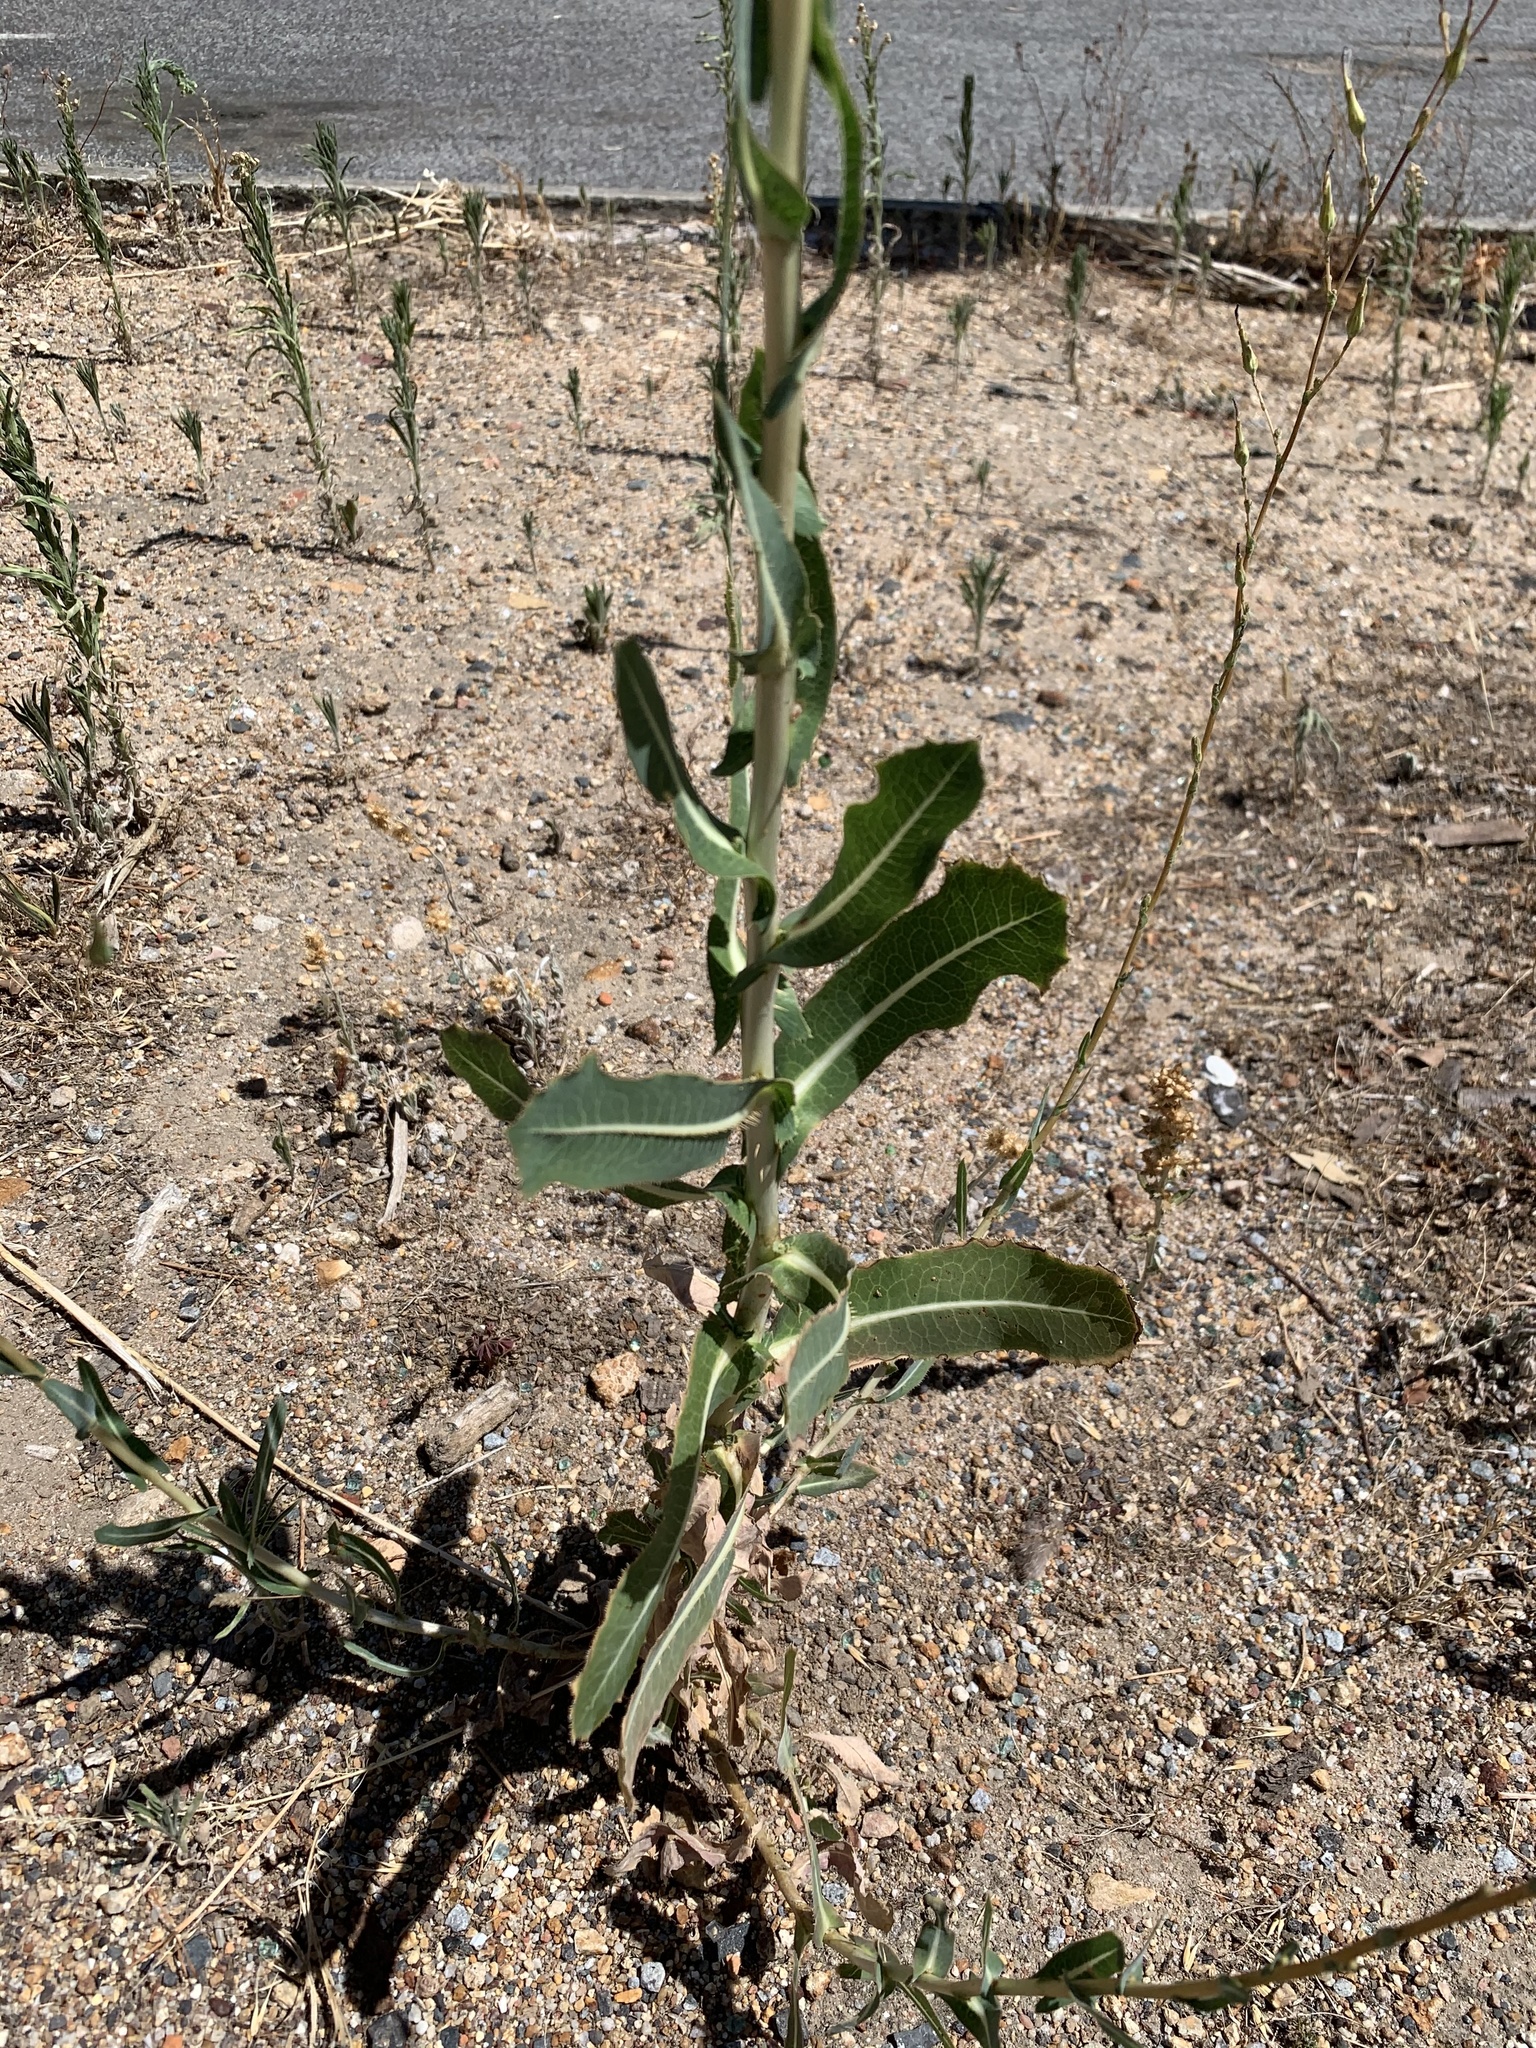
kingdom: Plantae
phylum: Tracheophyta
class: Magnoliopsida
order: Asterales
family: Asteraceae
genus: Lactuca
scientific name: Lactuca serriola
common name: Prickly lettuce
